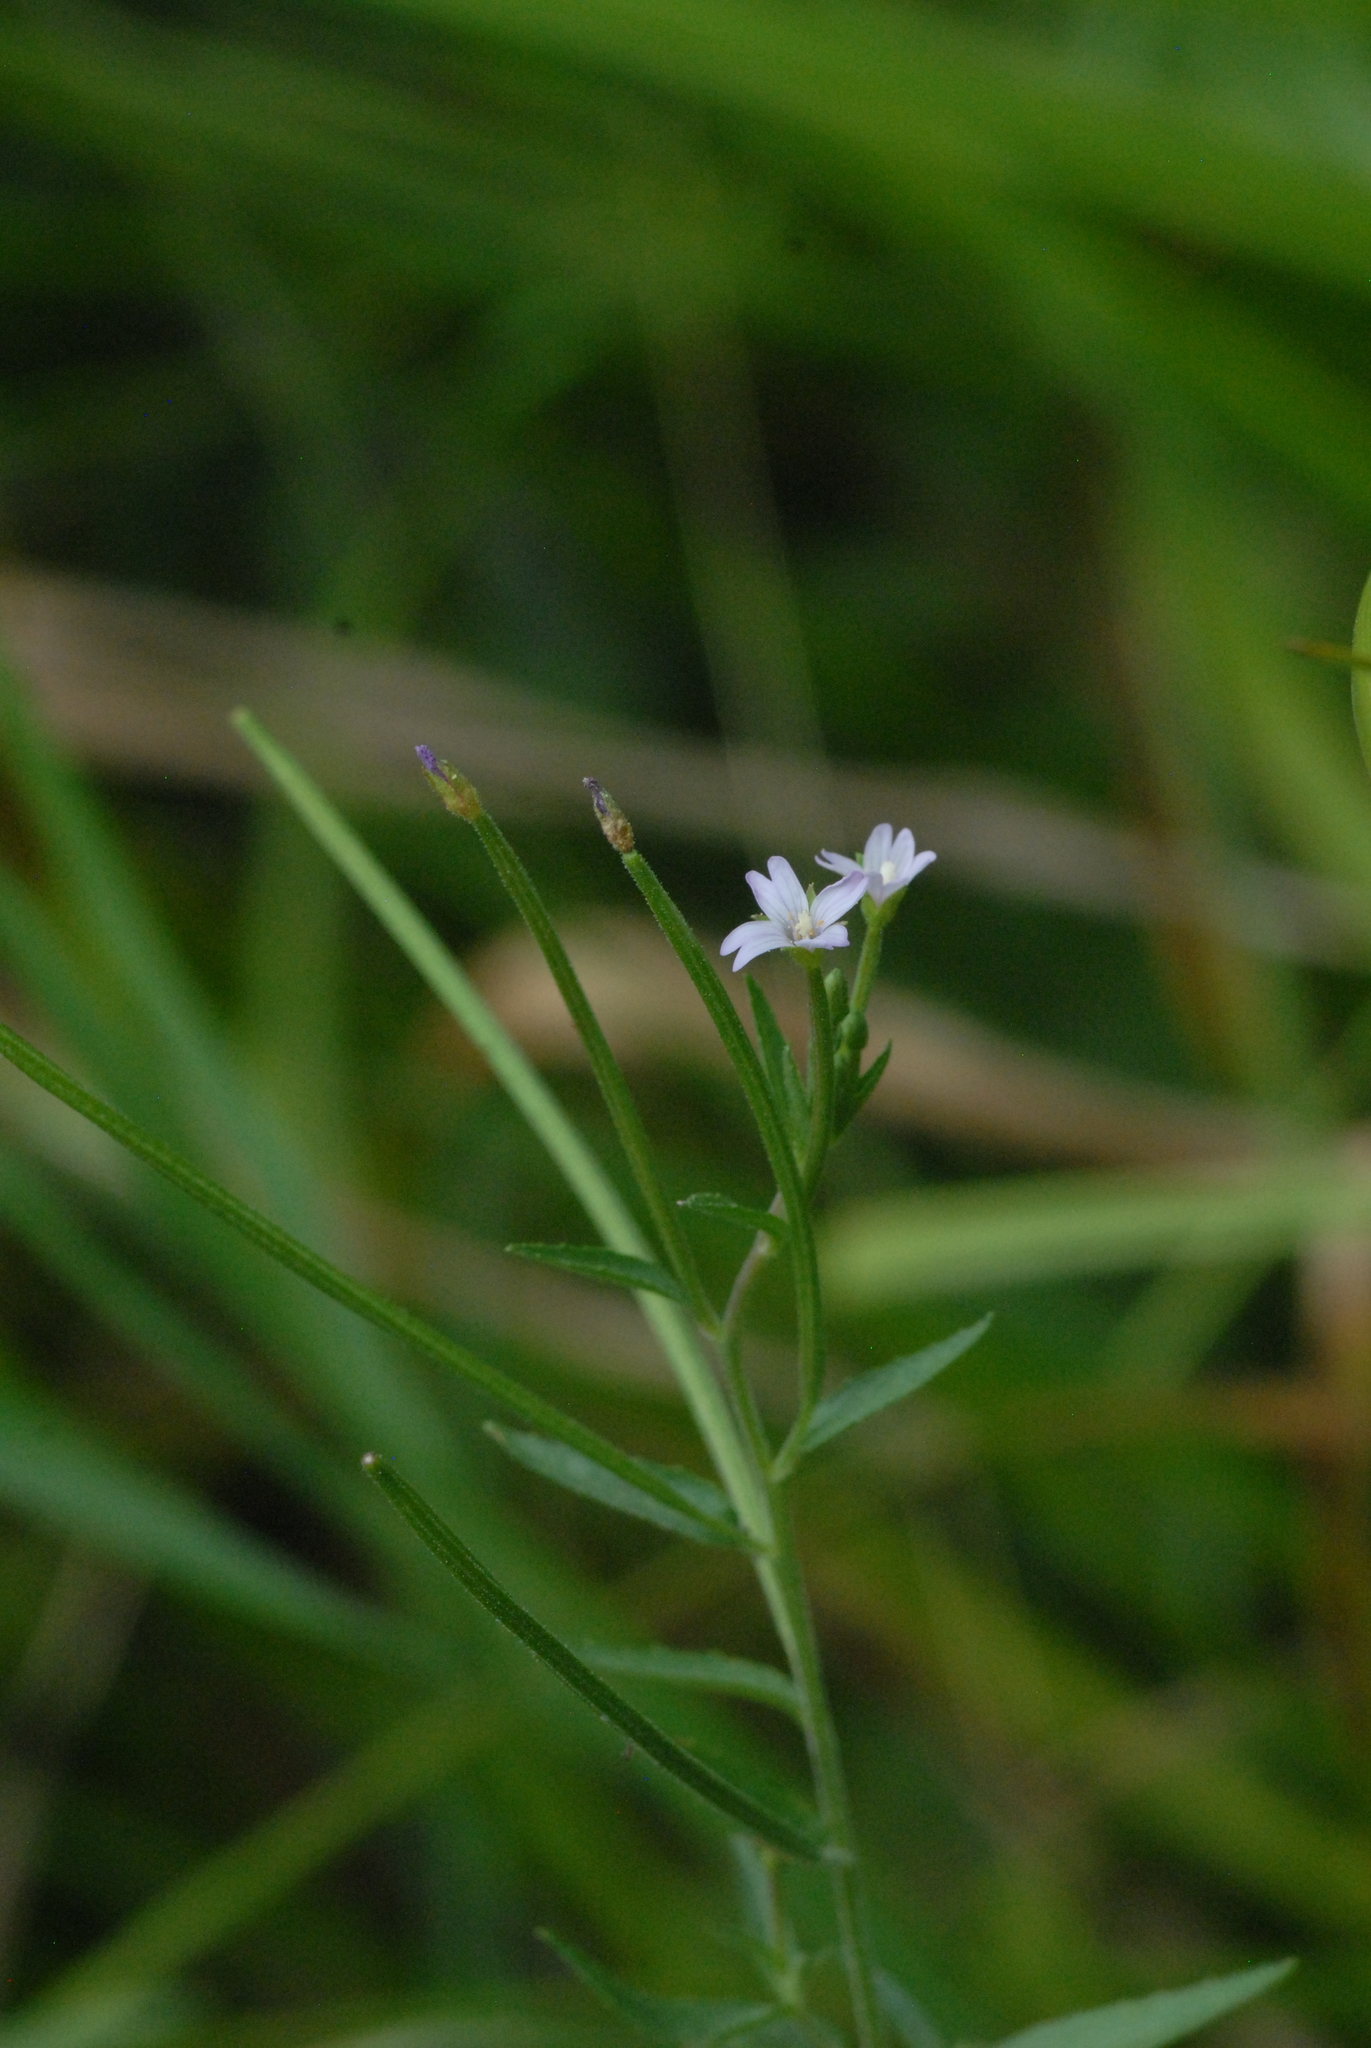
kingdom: Plantae
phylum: Tracheophyta
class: Magnoliopsida
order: Myrtales
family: Onagraceae
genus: Epilobium
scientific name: Epilobium palustre
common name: Marsh willowherb
